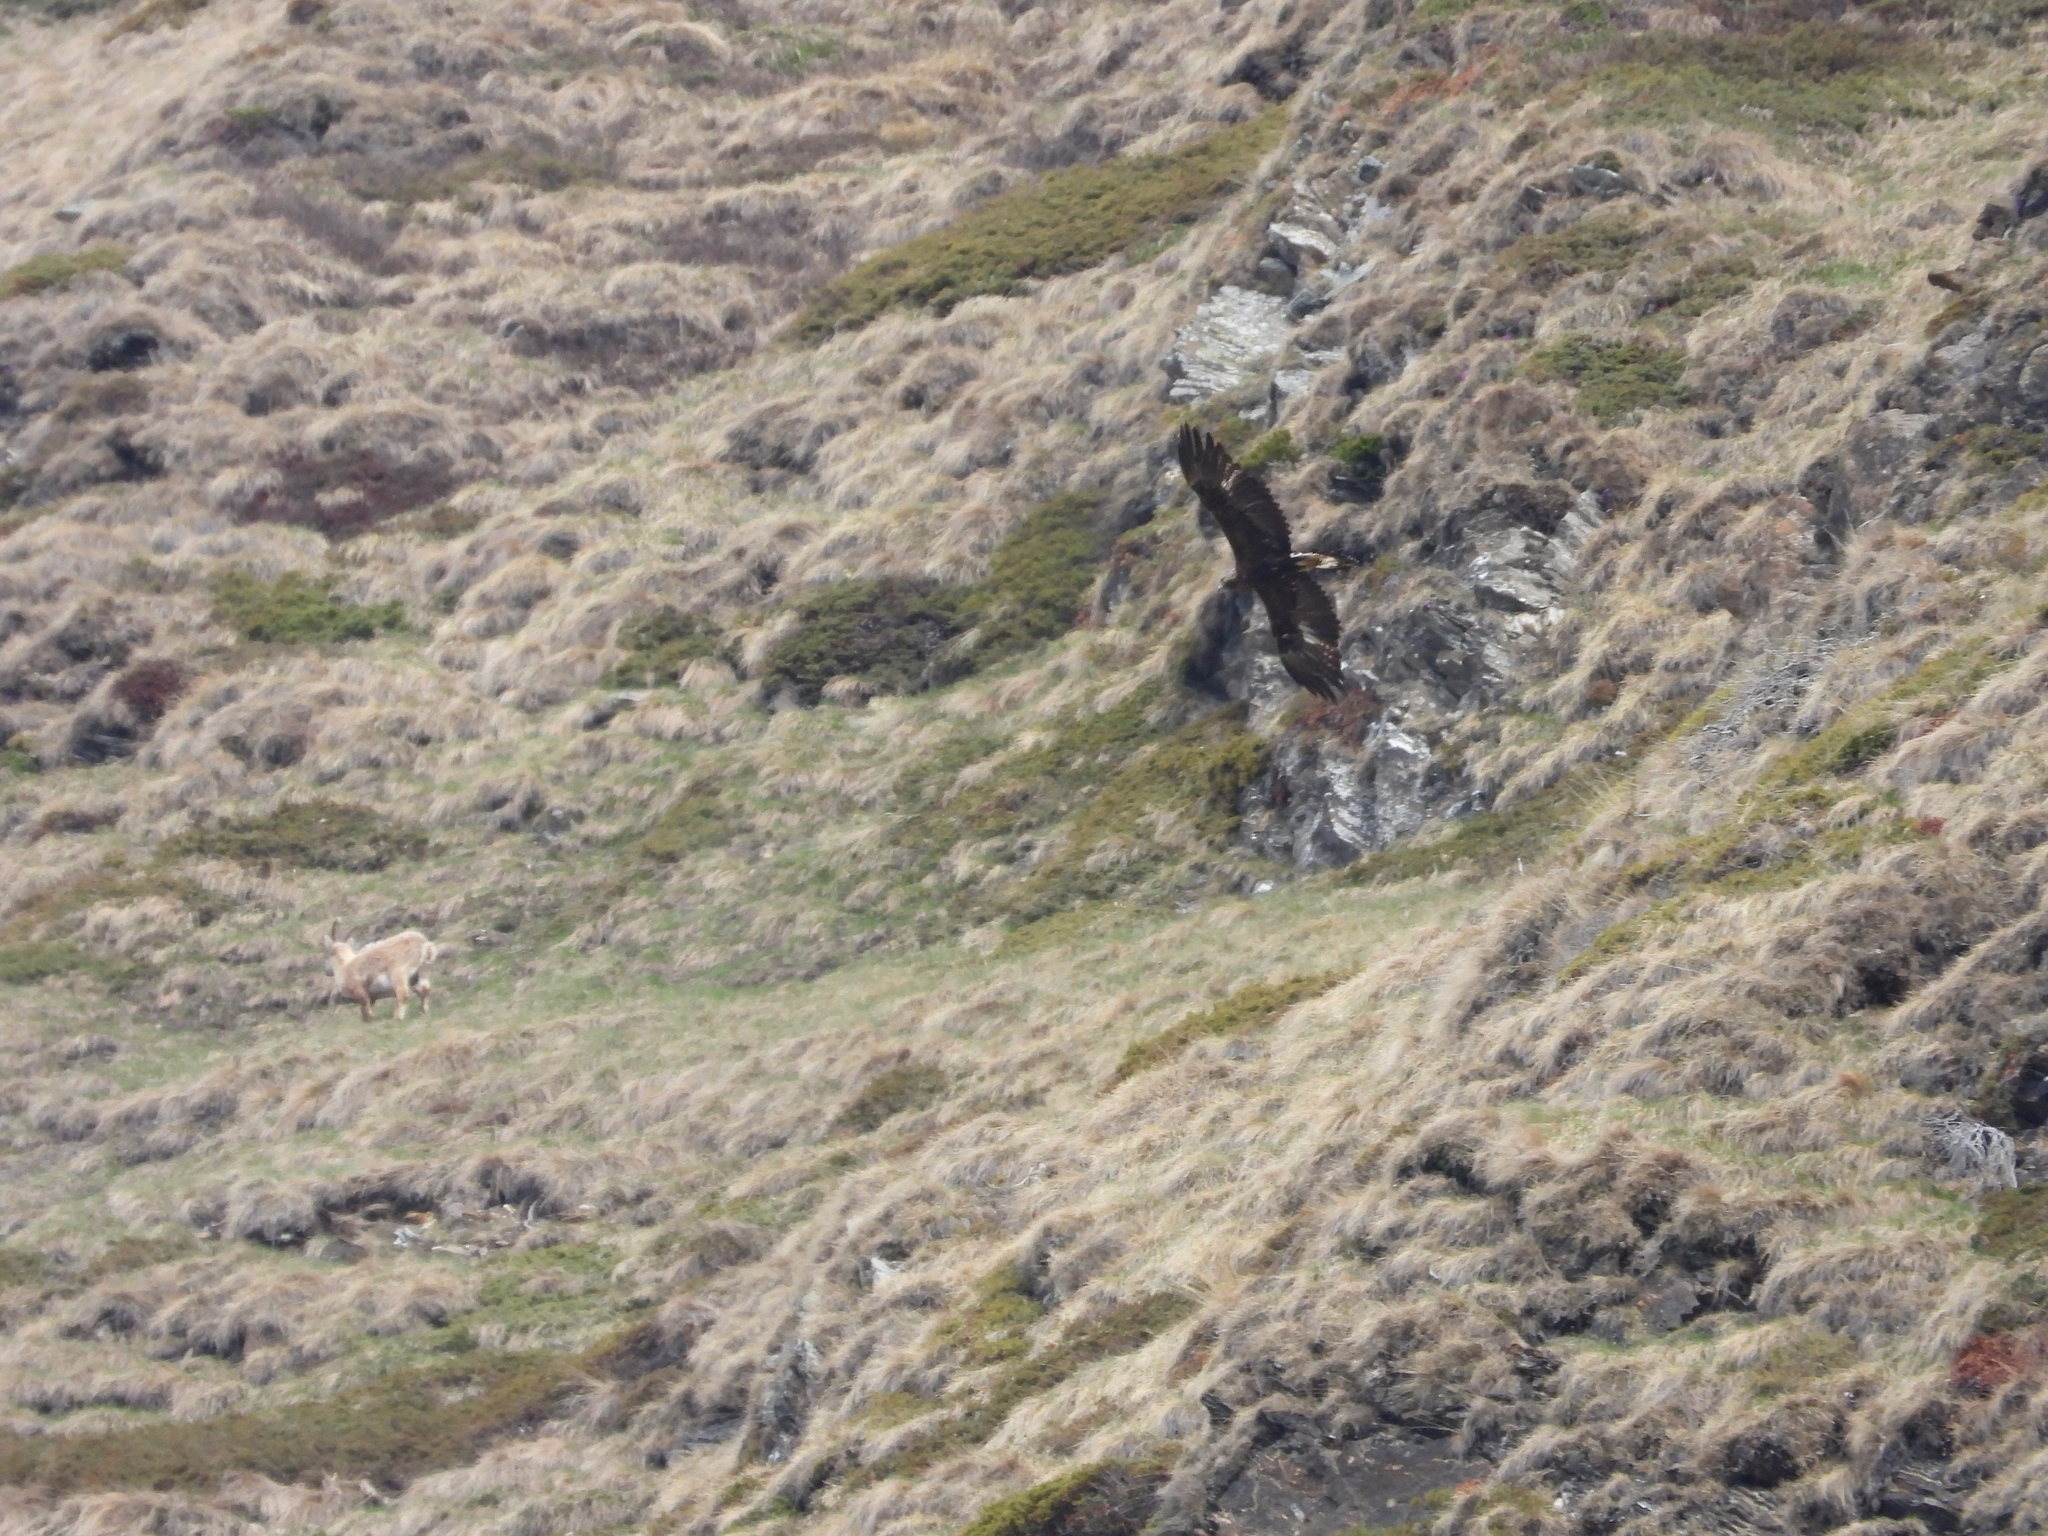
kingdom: Animalia
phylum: Chordata
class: Aves
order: Accipitriformes
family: Accipitridae
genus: Aquila
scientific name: Aquila chrysaetos
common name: Golden eagle
